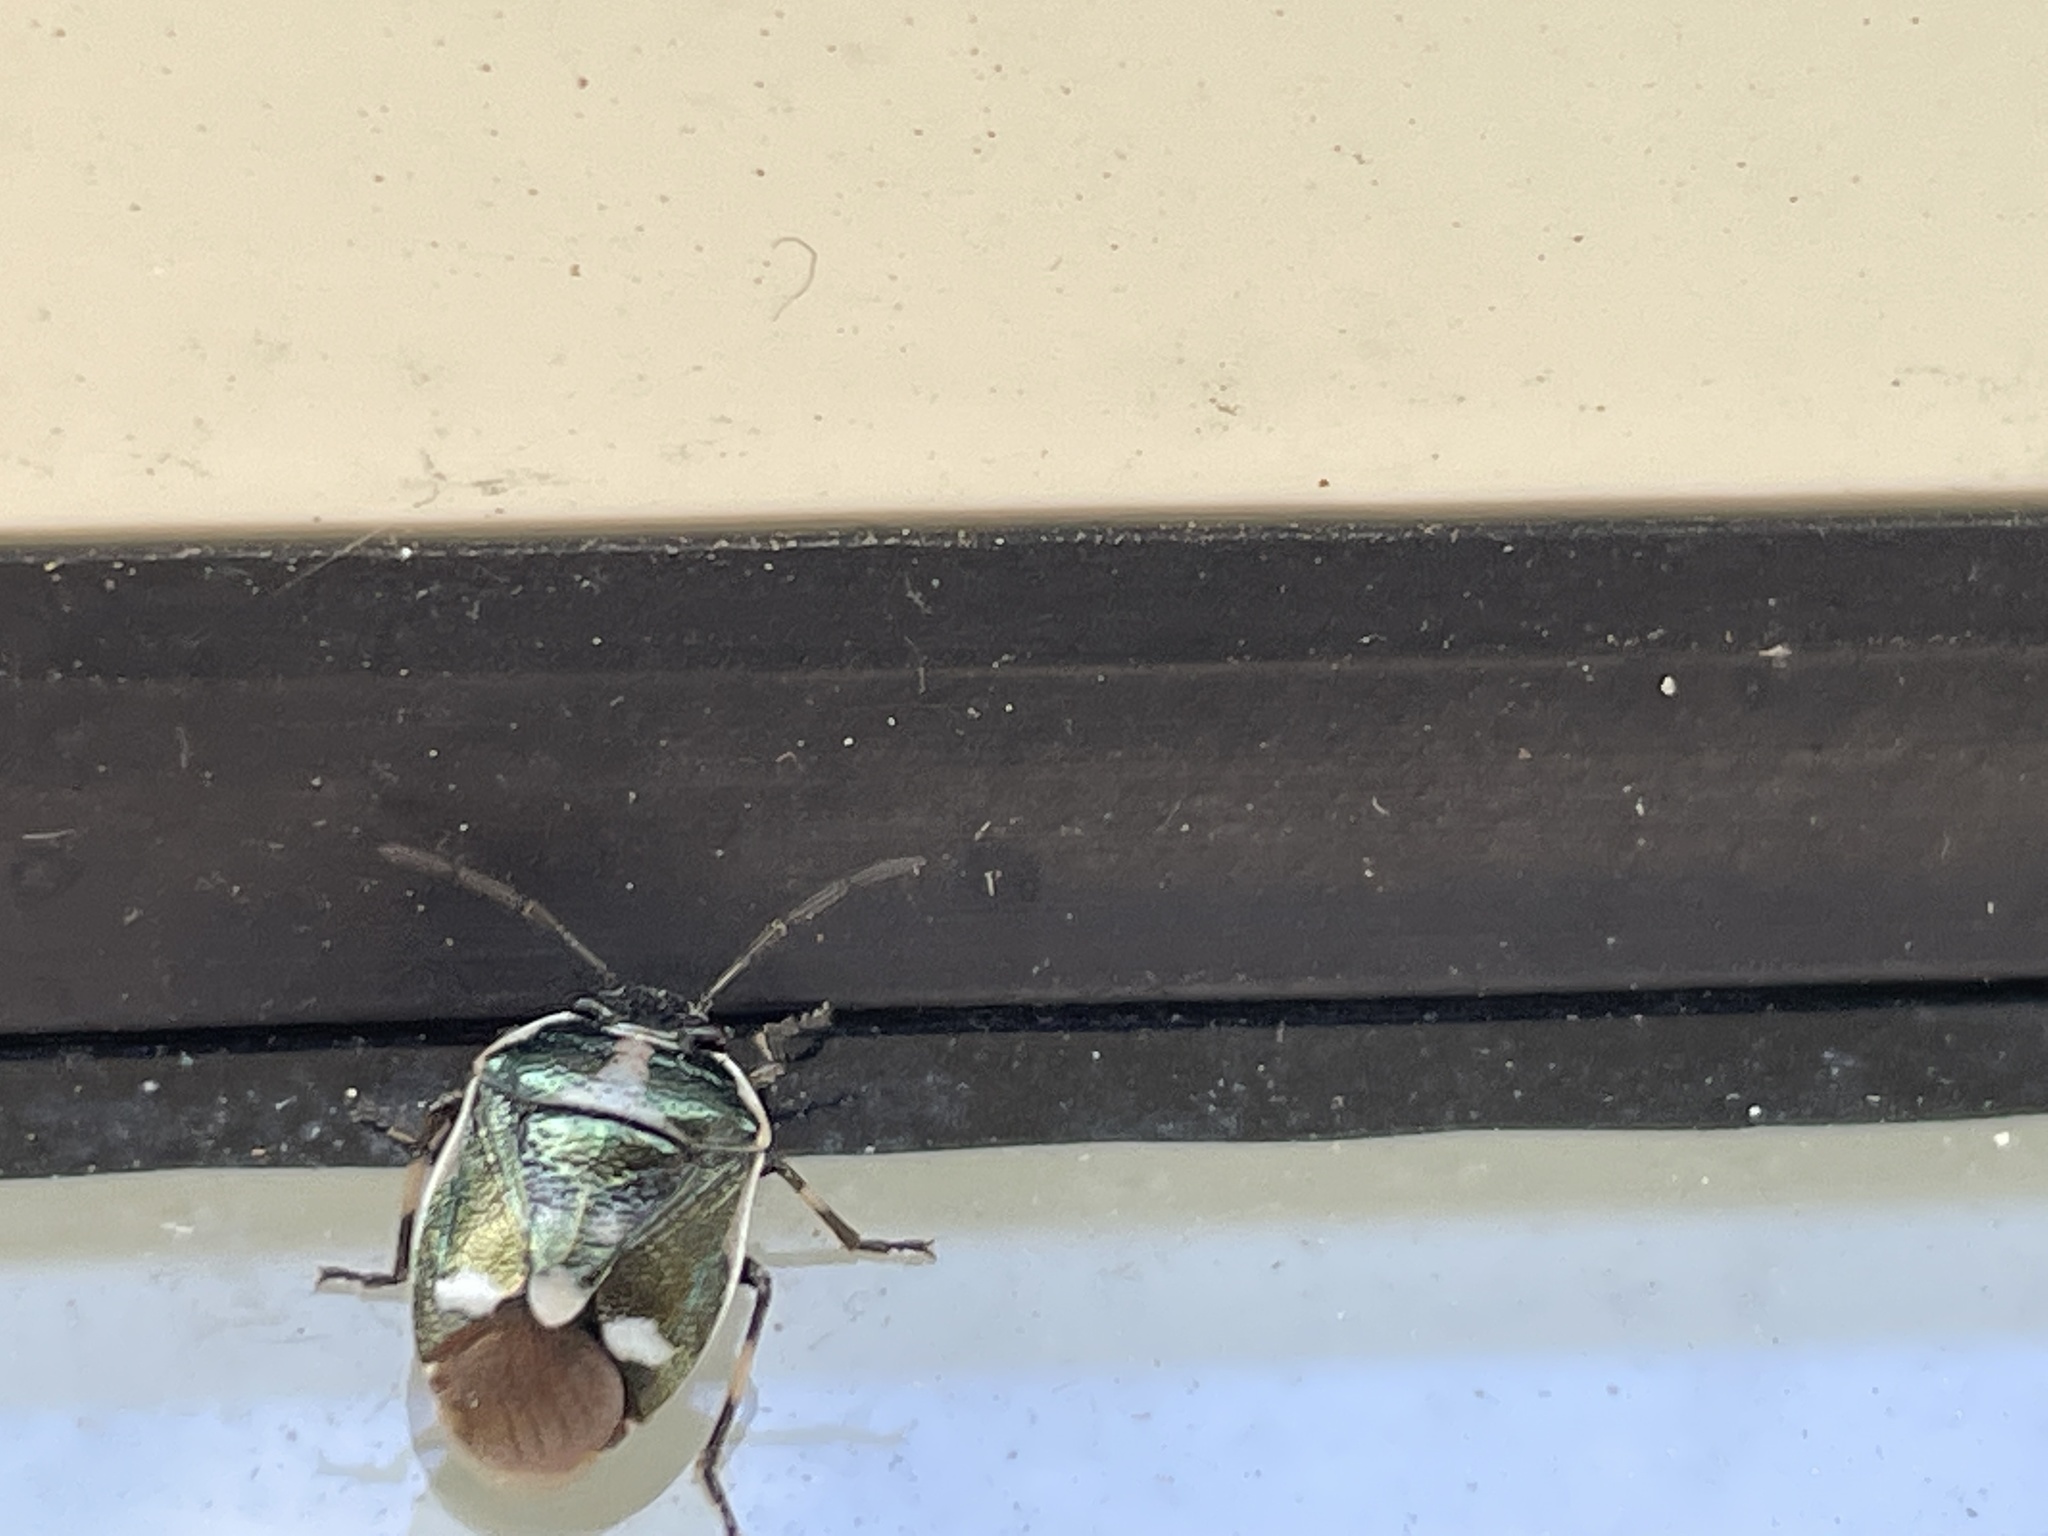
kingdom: Animalia
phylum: Arthropoda
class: Insecta
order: Hemiptera
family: Pentatomidae
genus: Eurydema
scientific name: Eurydema oleracea
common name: Cabbage bug
